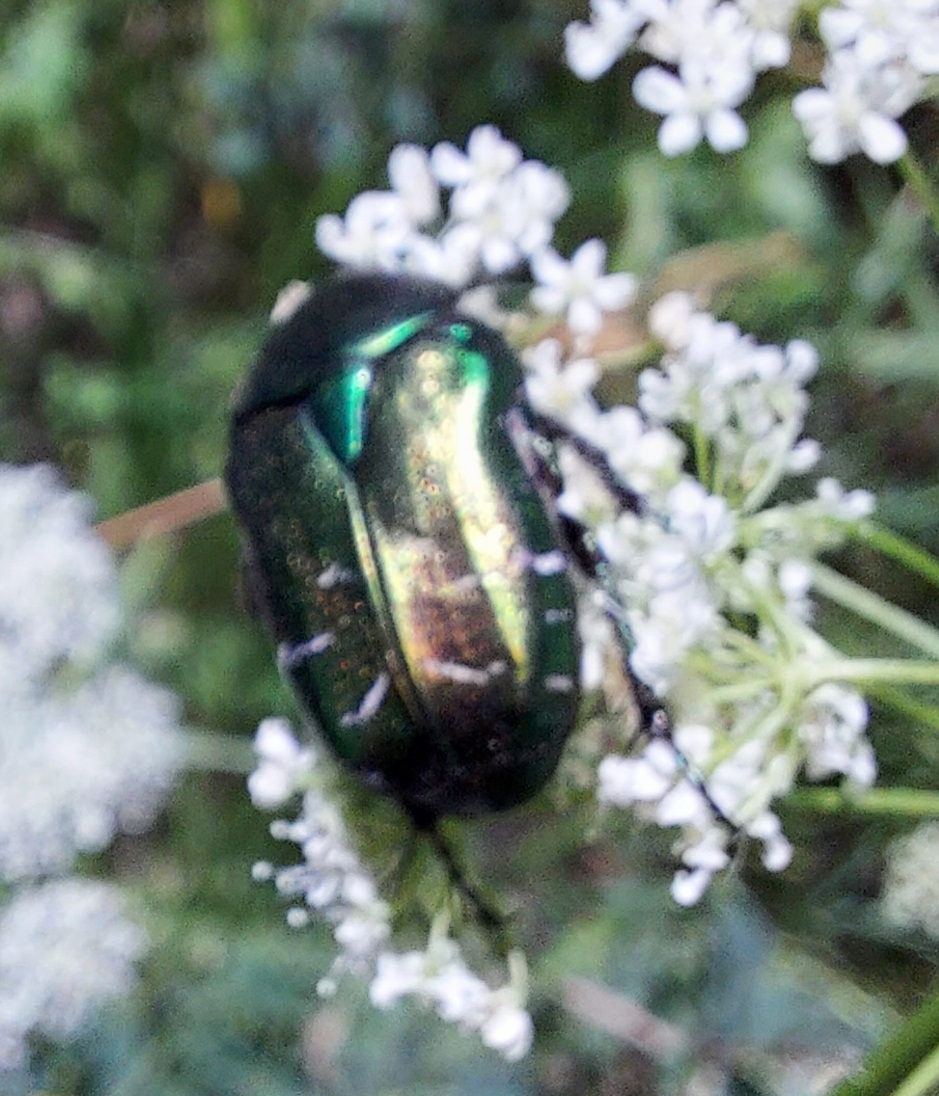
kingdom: Animalia
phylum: Arthropoda
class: Insecta
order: Coleoptera
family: Scarabaeidae
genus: Cetonia
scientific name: Cetonia aurata
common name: Rose chafer
